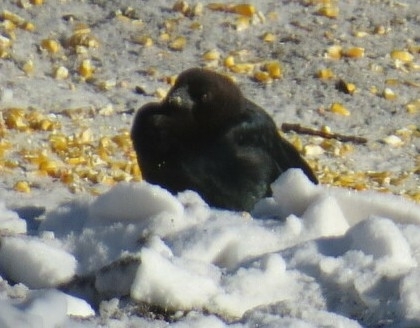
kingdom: Animalia
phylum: Chordata
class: Aves
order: Passeriformes
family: Icteridae
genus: Molothrus
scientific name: Molothrus ater
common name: Brown-headed cowbird
